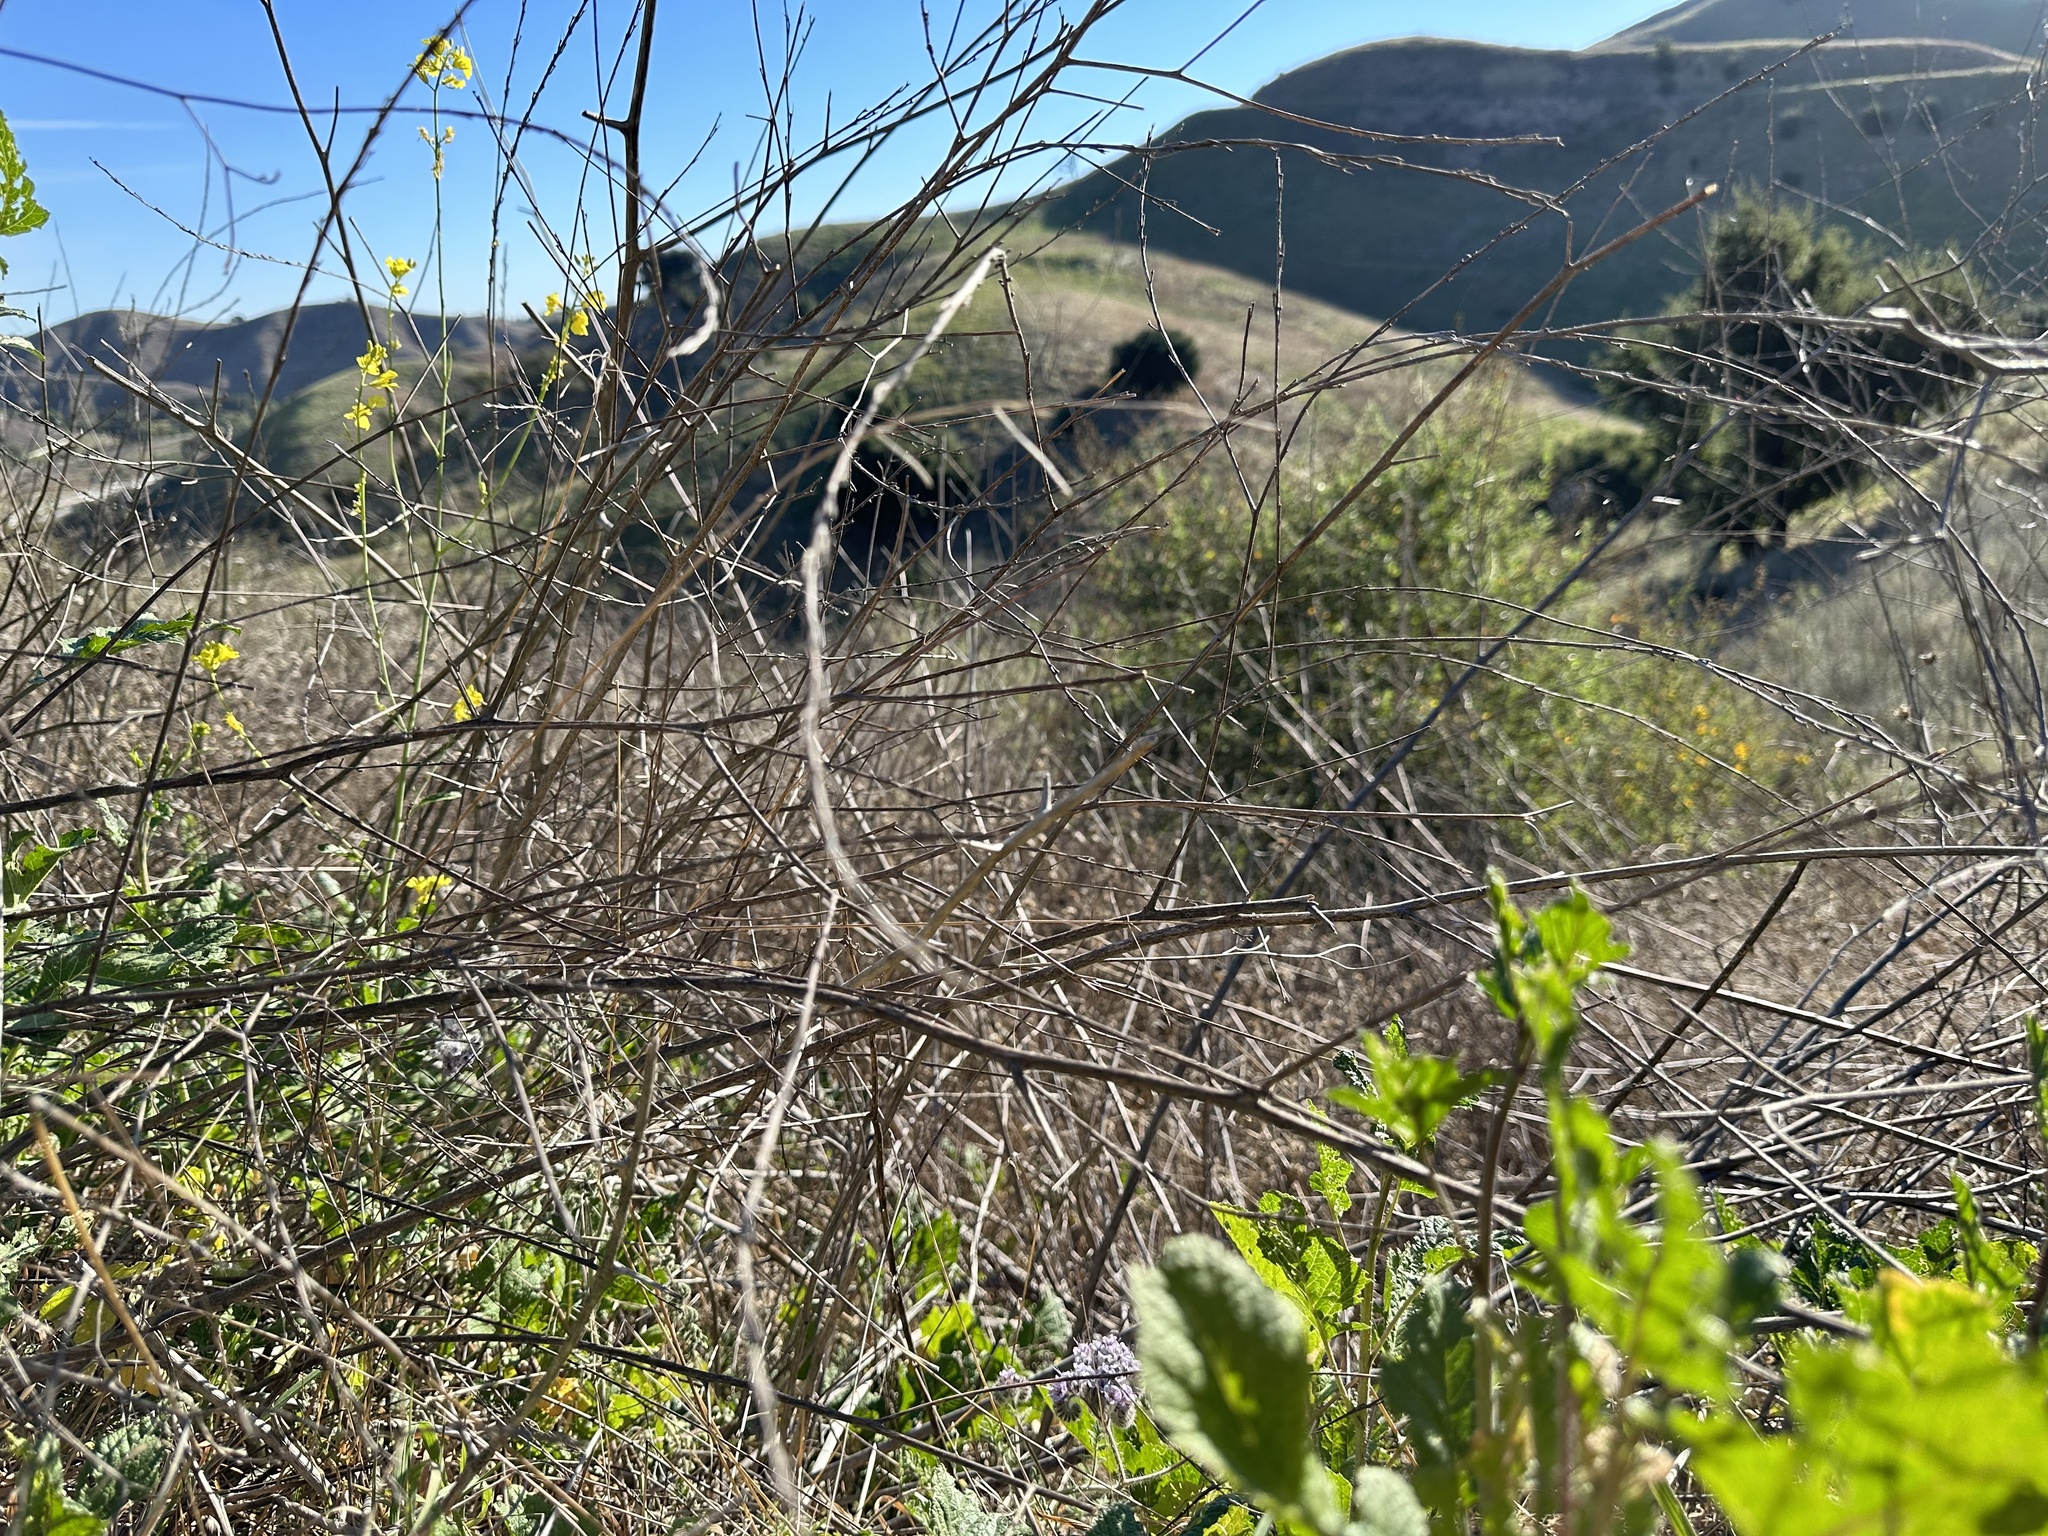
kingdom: Plantae
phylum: Tracheophyta
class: Magnoliopsida
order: Boraginales
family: Hydrophyllaceae
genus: Phacelia
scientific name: Phacelia hubbyi
